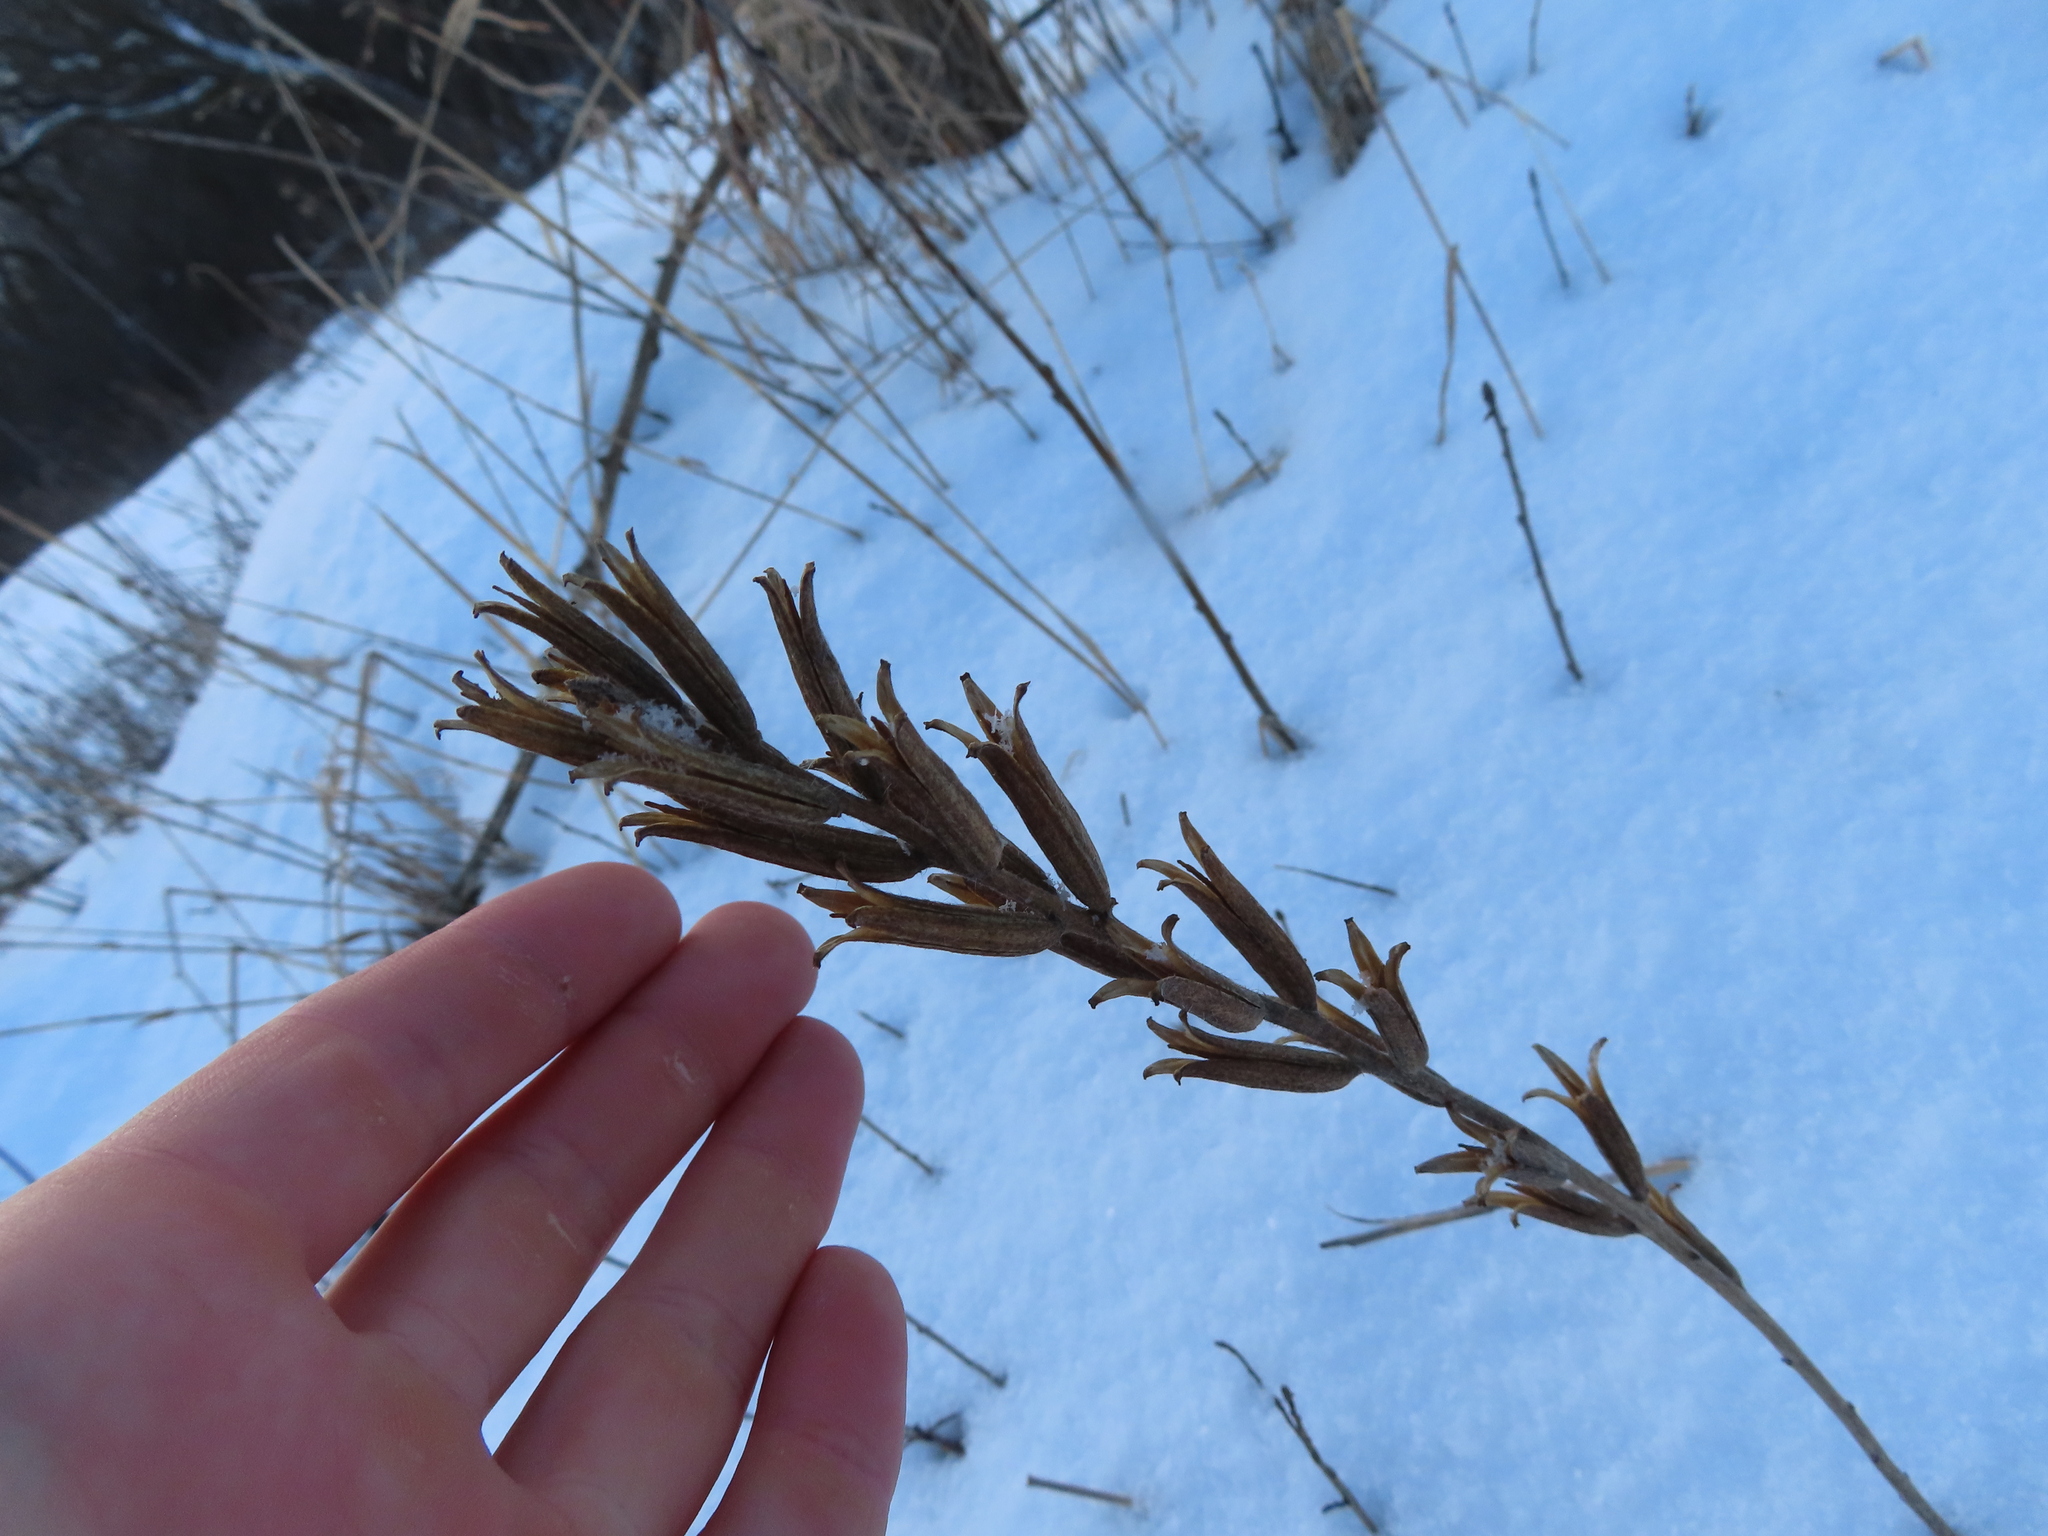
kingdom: Plantae
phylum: Tracheophyta
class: Magnoliopsida
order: Myrtales
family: Onagraceae
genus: Oenothera
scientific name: Oenothera biennis
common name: Common evening-primrose
